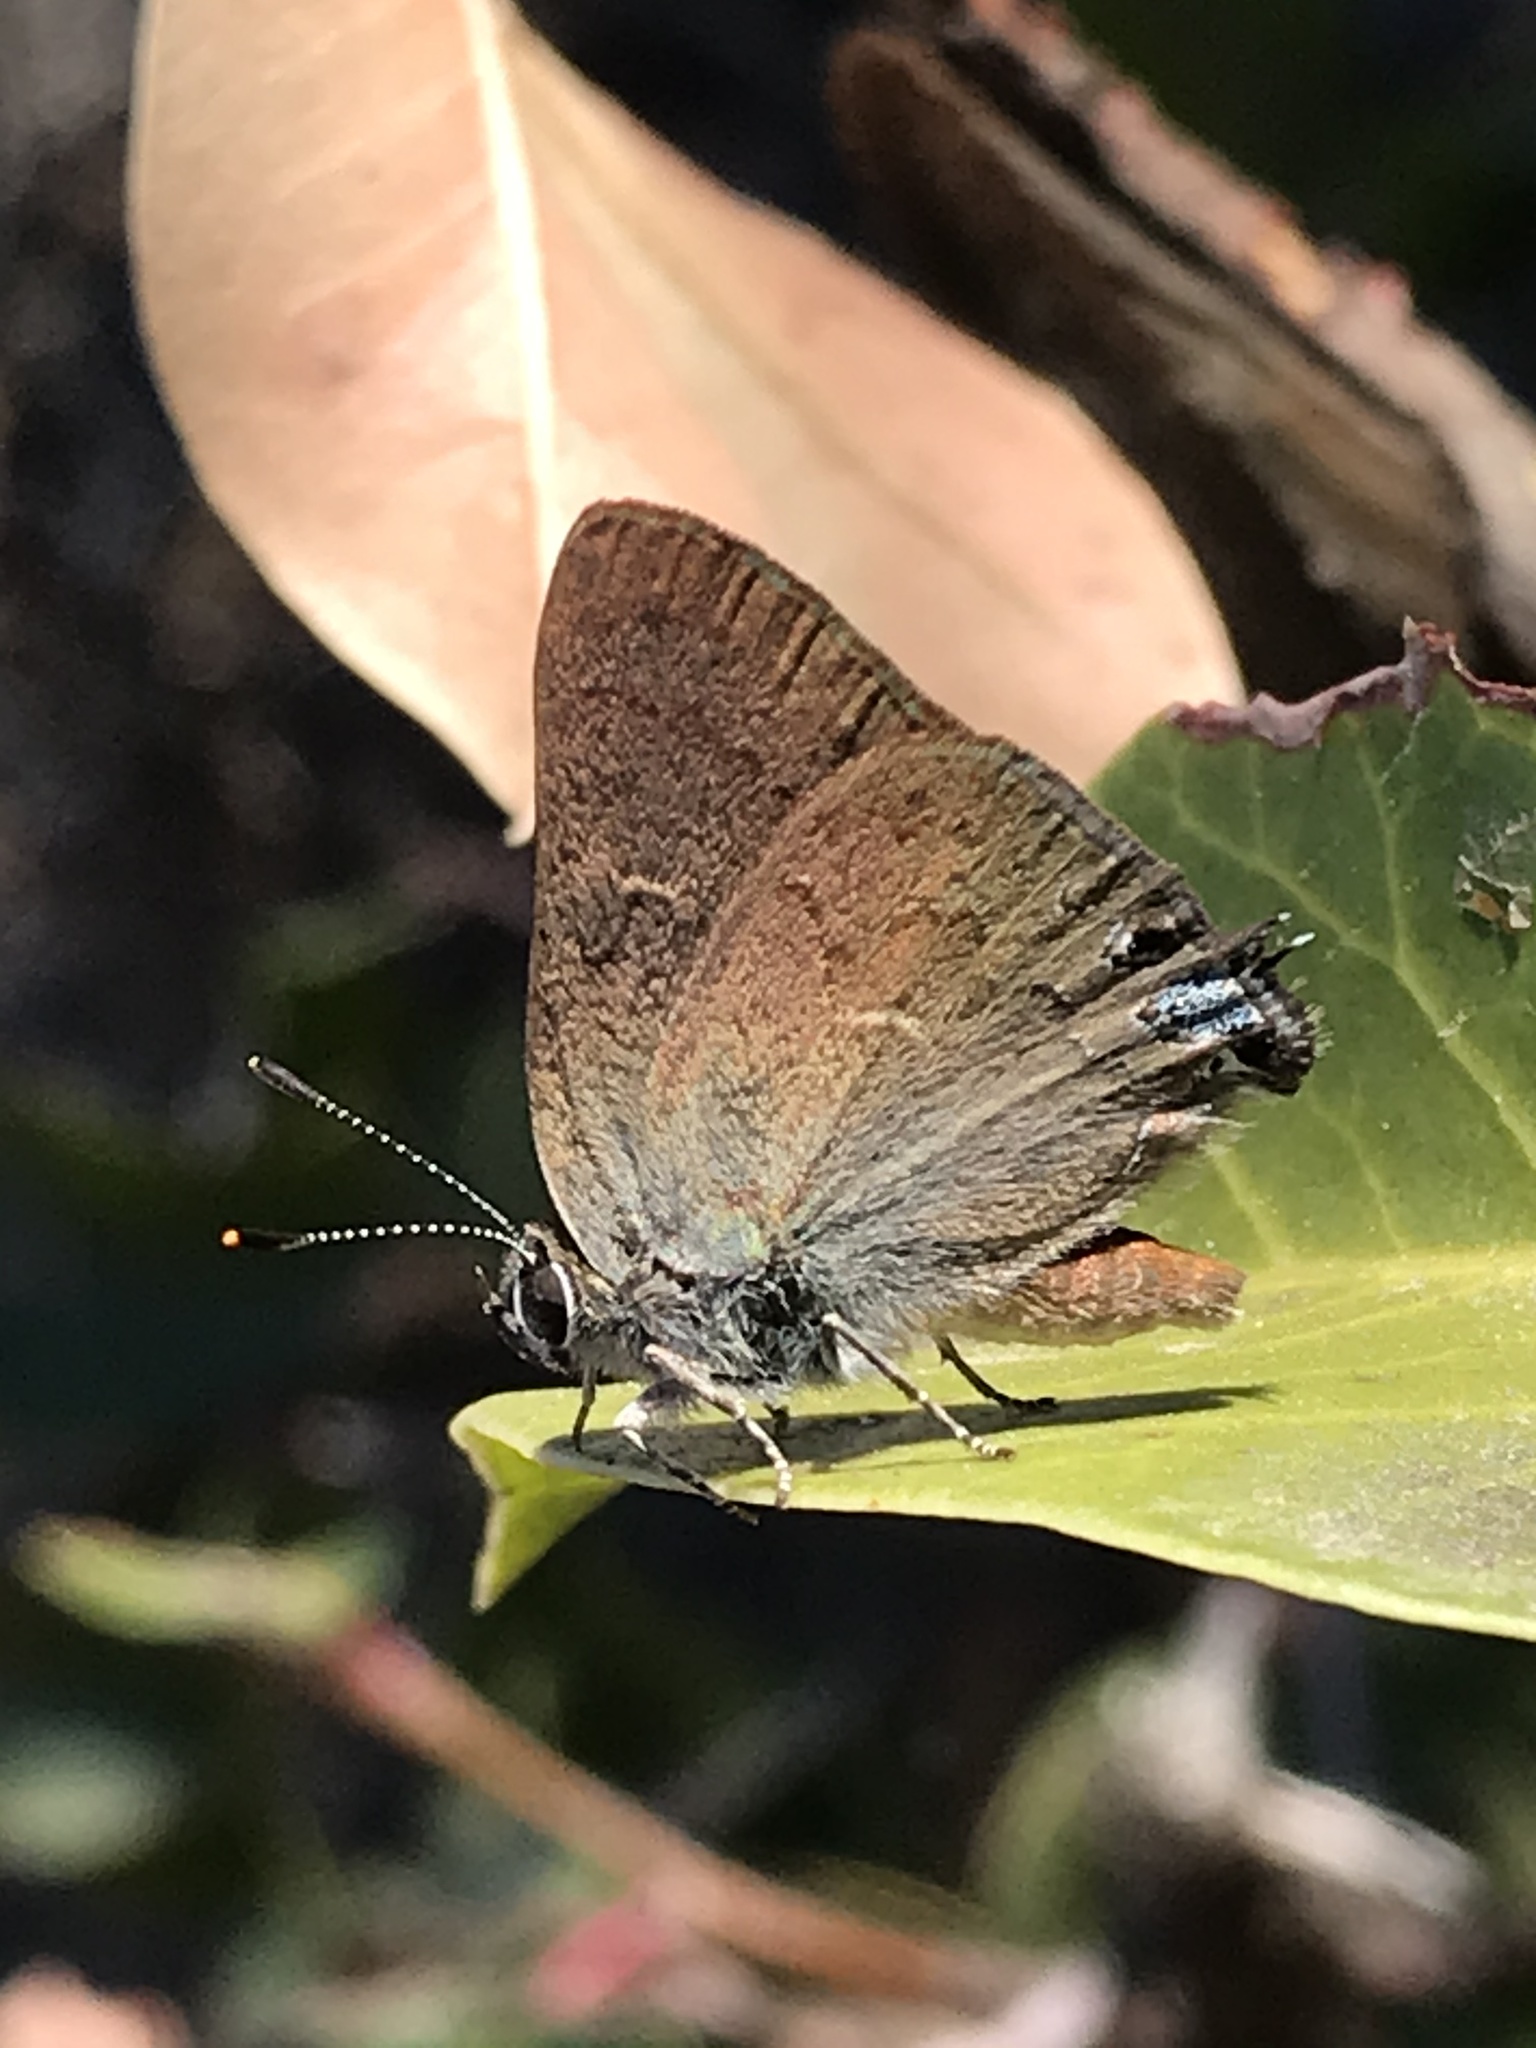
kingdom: Animalia
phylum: Arthropoda
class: Insecta
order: Lepidoptera
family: Lycaenidae
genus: Strymon
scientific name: Strymon saepium
